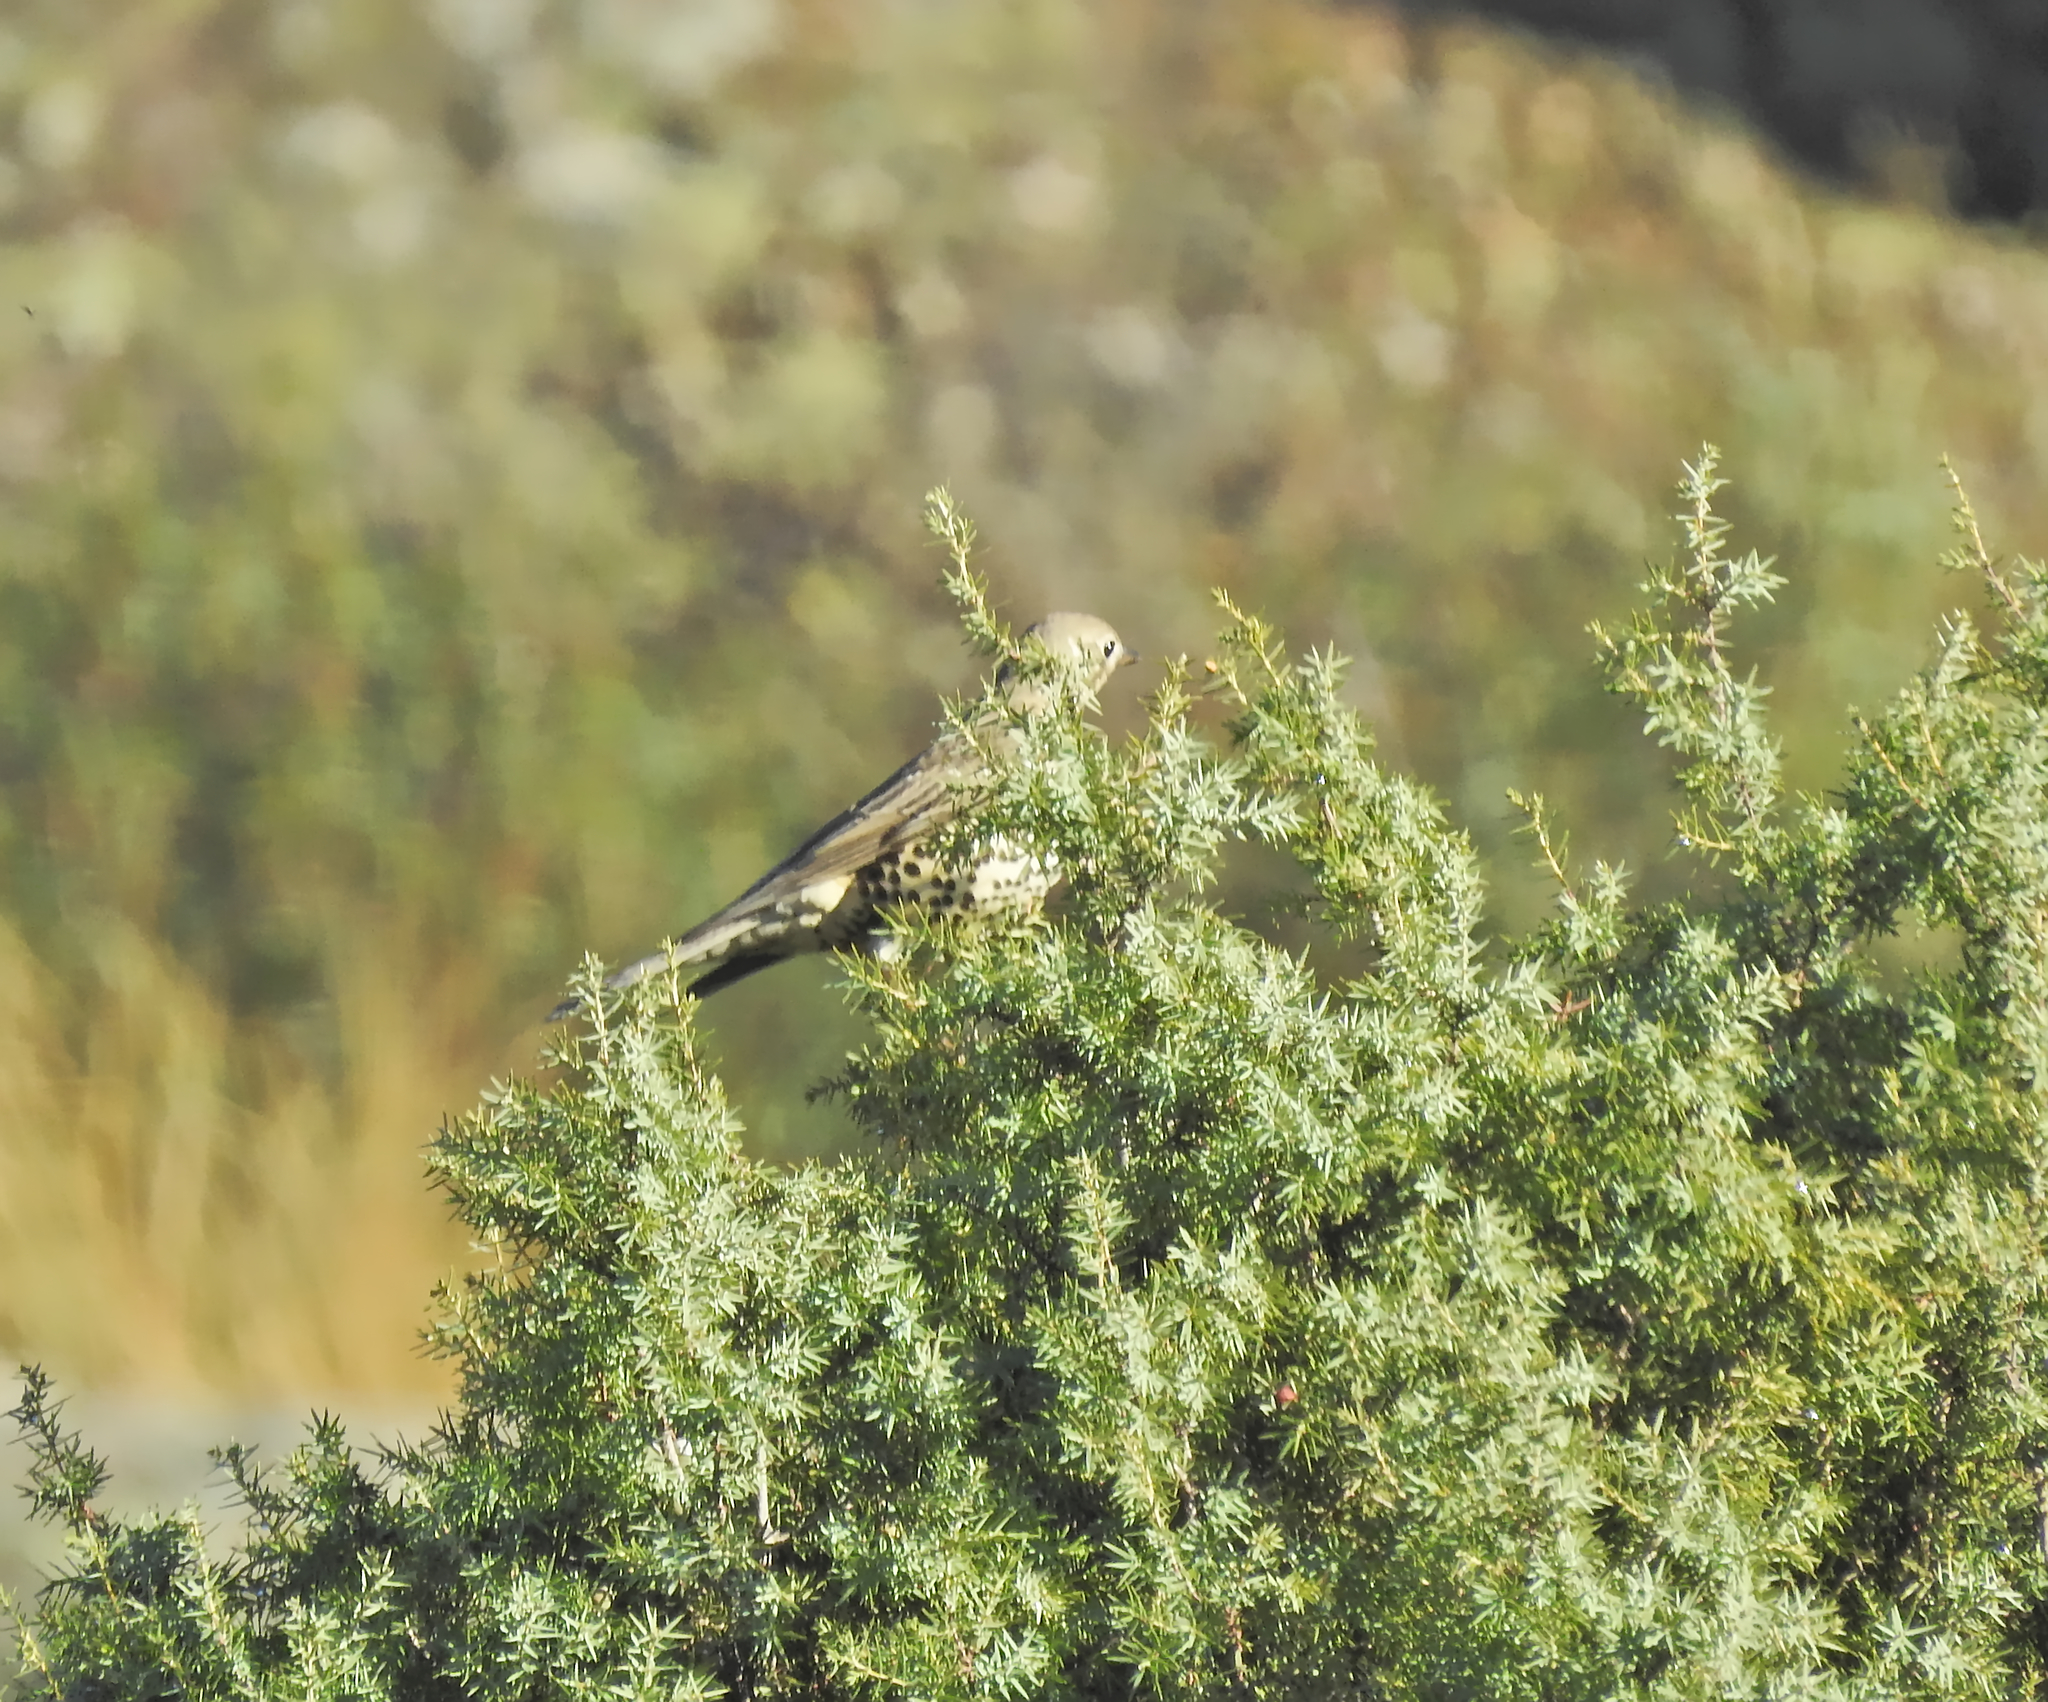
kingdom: Animalia
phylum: Chordata
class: Aves
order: Passeriformes
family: Turdidae
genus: Turdus
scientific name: Turdus viscivorus
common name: Mistle thrush
